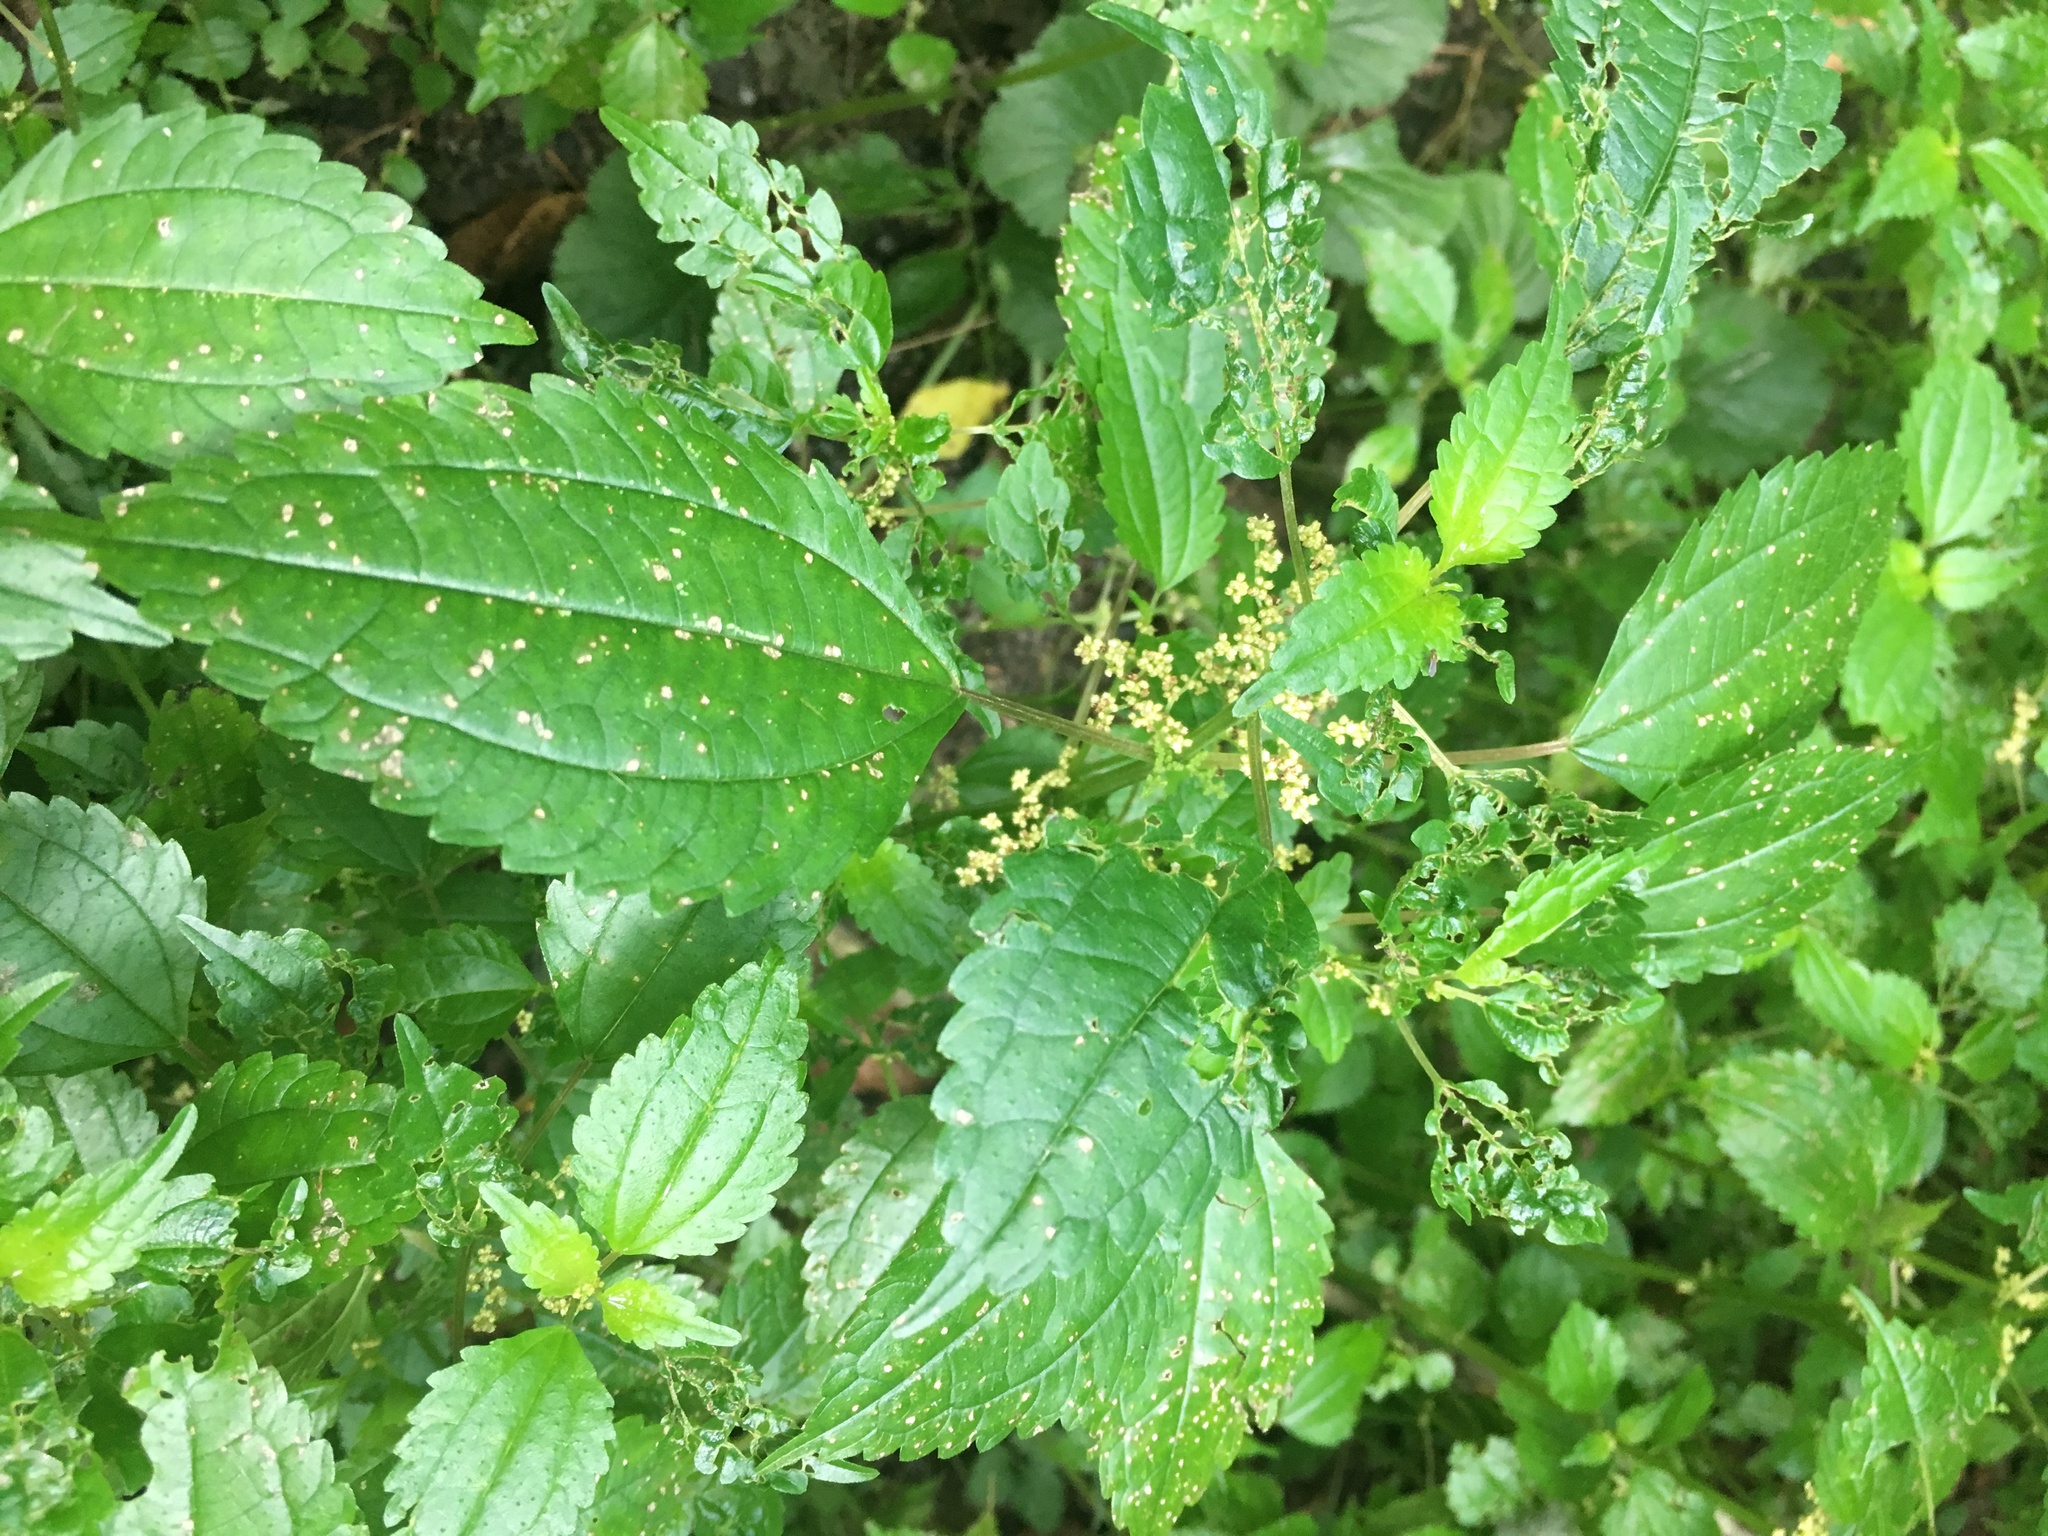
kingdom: Plantae
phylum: Tracheophyta
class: Magnoliopsida
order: Rosales
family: Urticaceae
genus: Pilea
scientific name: Pilea pumila
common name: Clearweed
